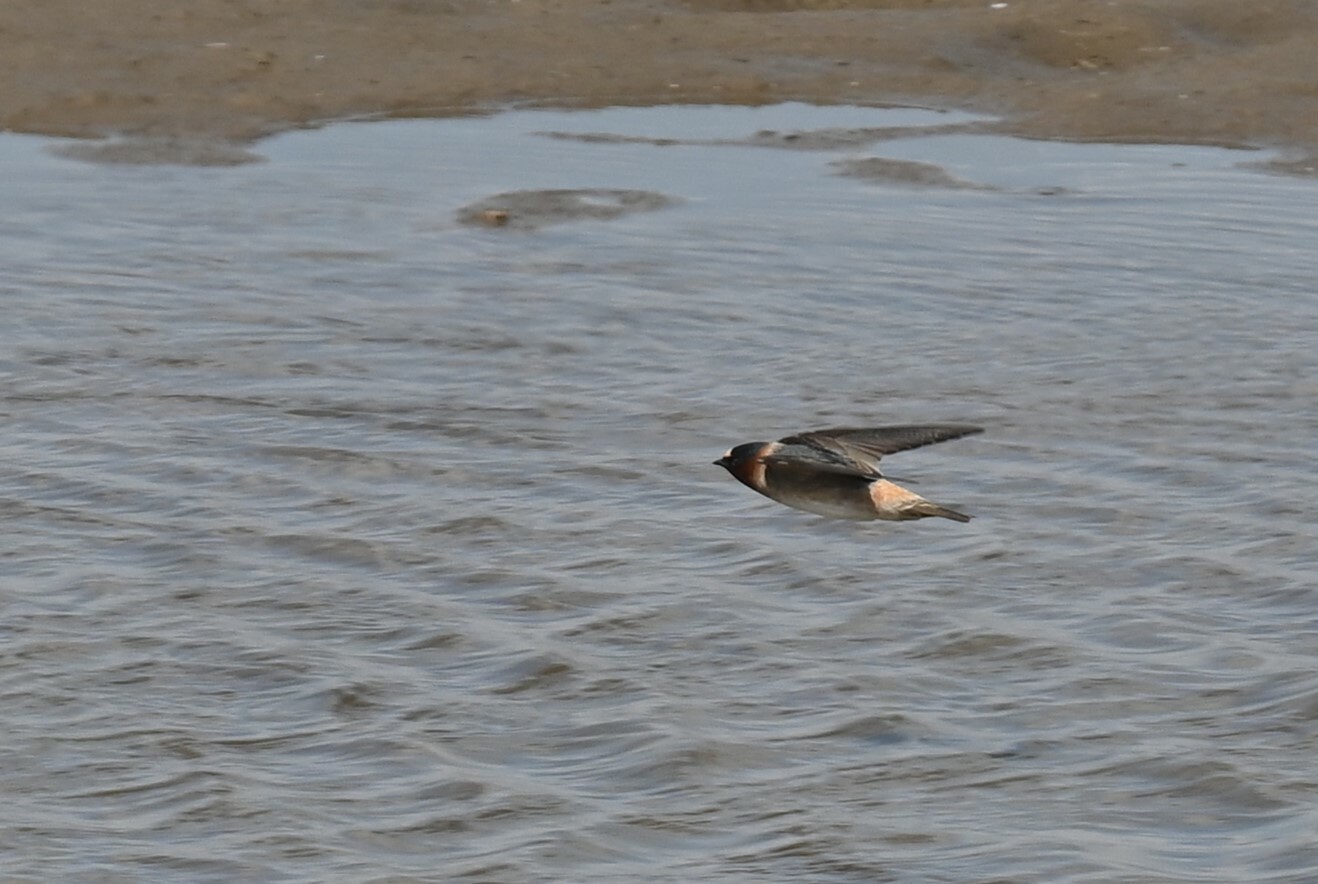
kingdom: Animalia
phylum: Chordata
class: Aves
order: Passeriformes
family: Hirundinidae
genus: Petrochelidon
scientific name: Petrochelidon pyrrhonota
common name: American cliff swallow
